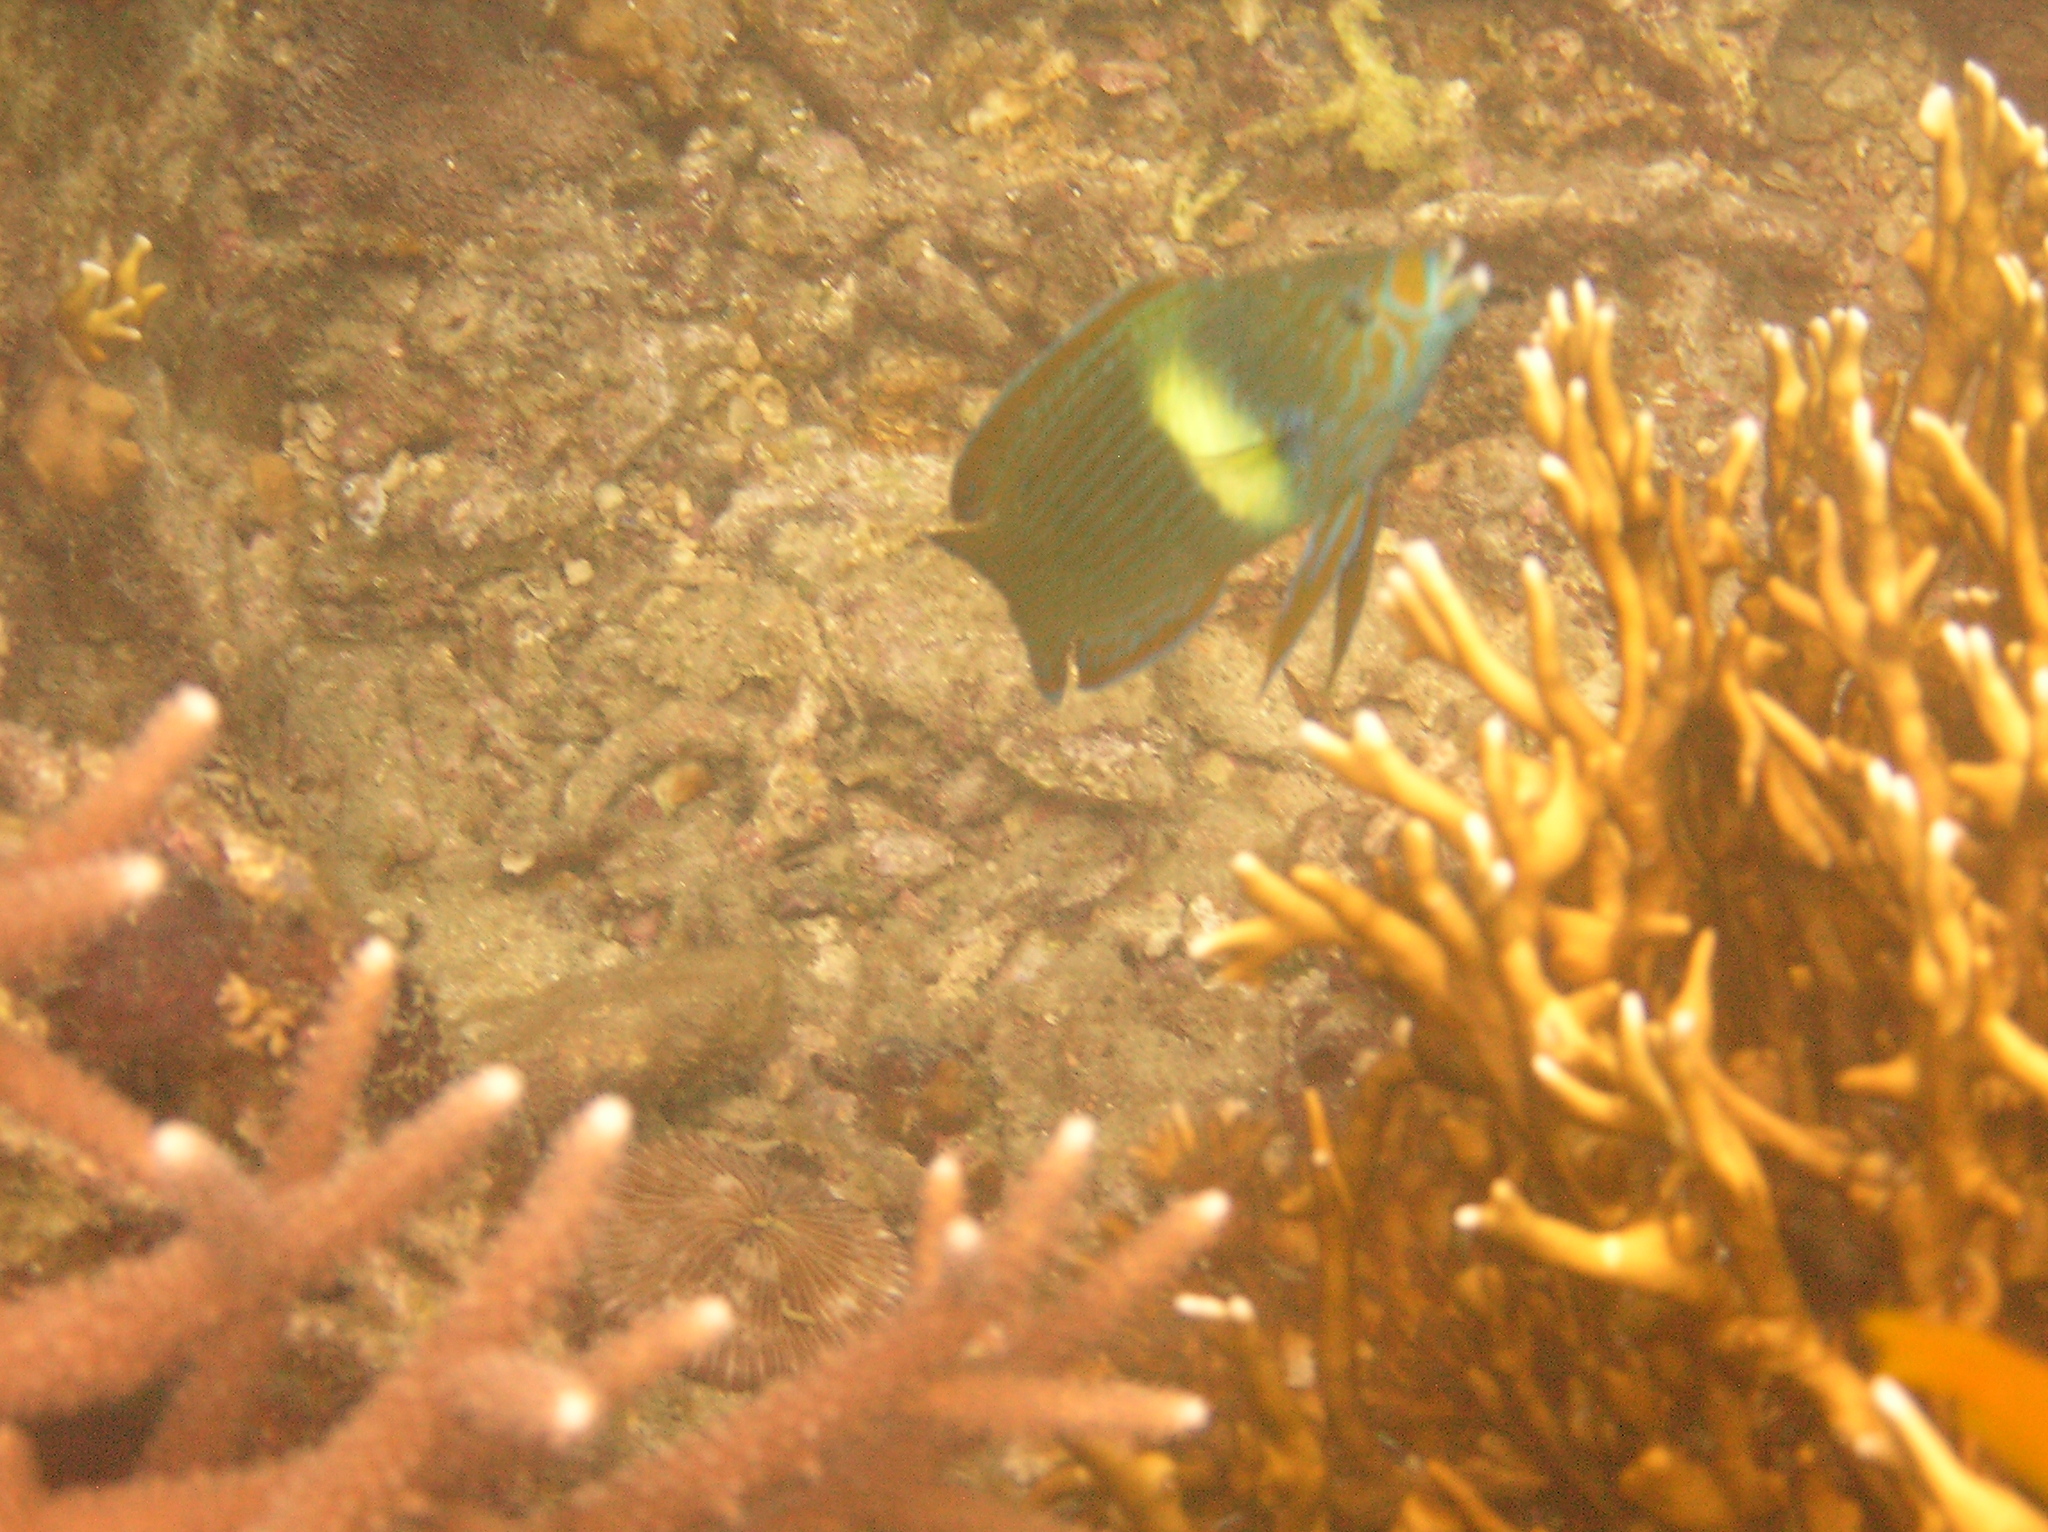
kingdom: Animalia
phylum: Chordata
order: Perciformes
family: Labridae
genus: Labrichthys
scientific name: Labrichthys unilineatus
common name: Onelined wrasse
